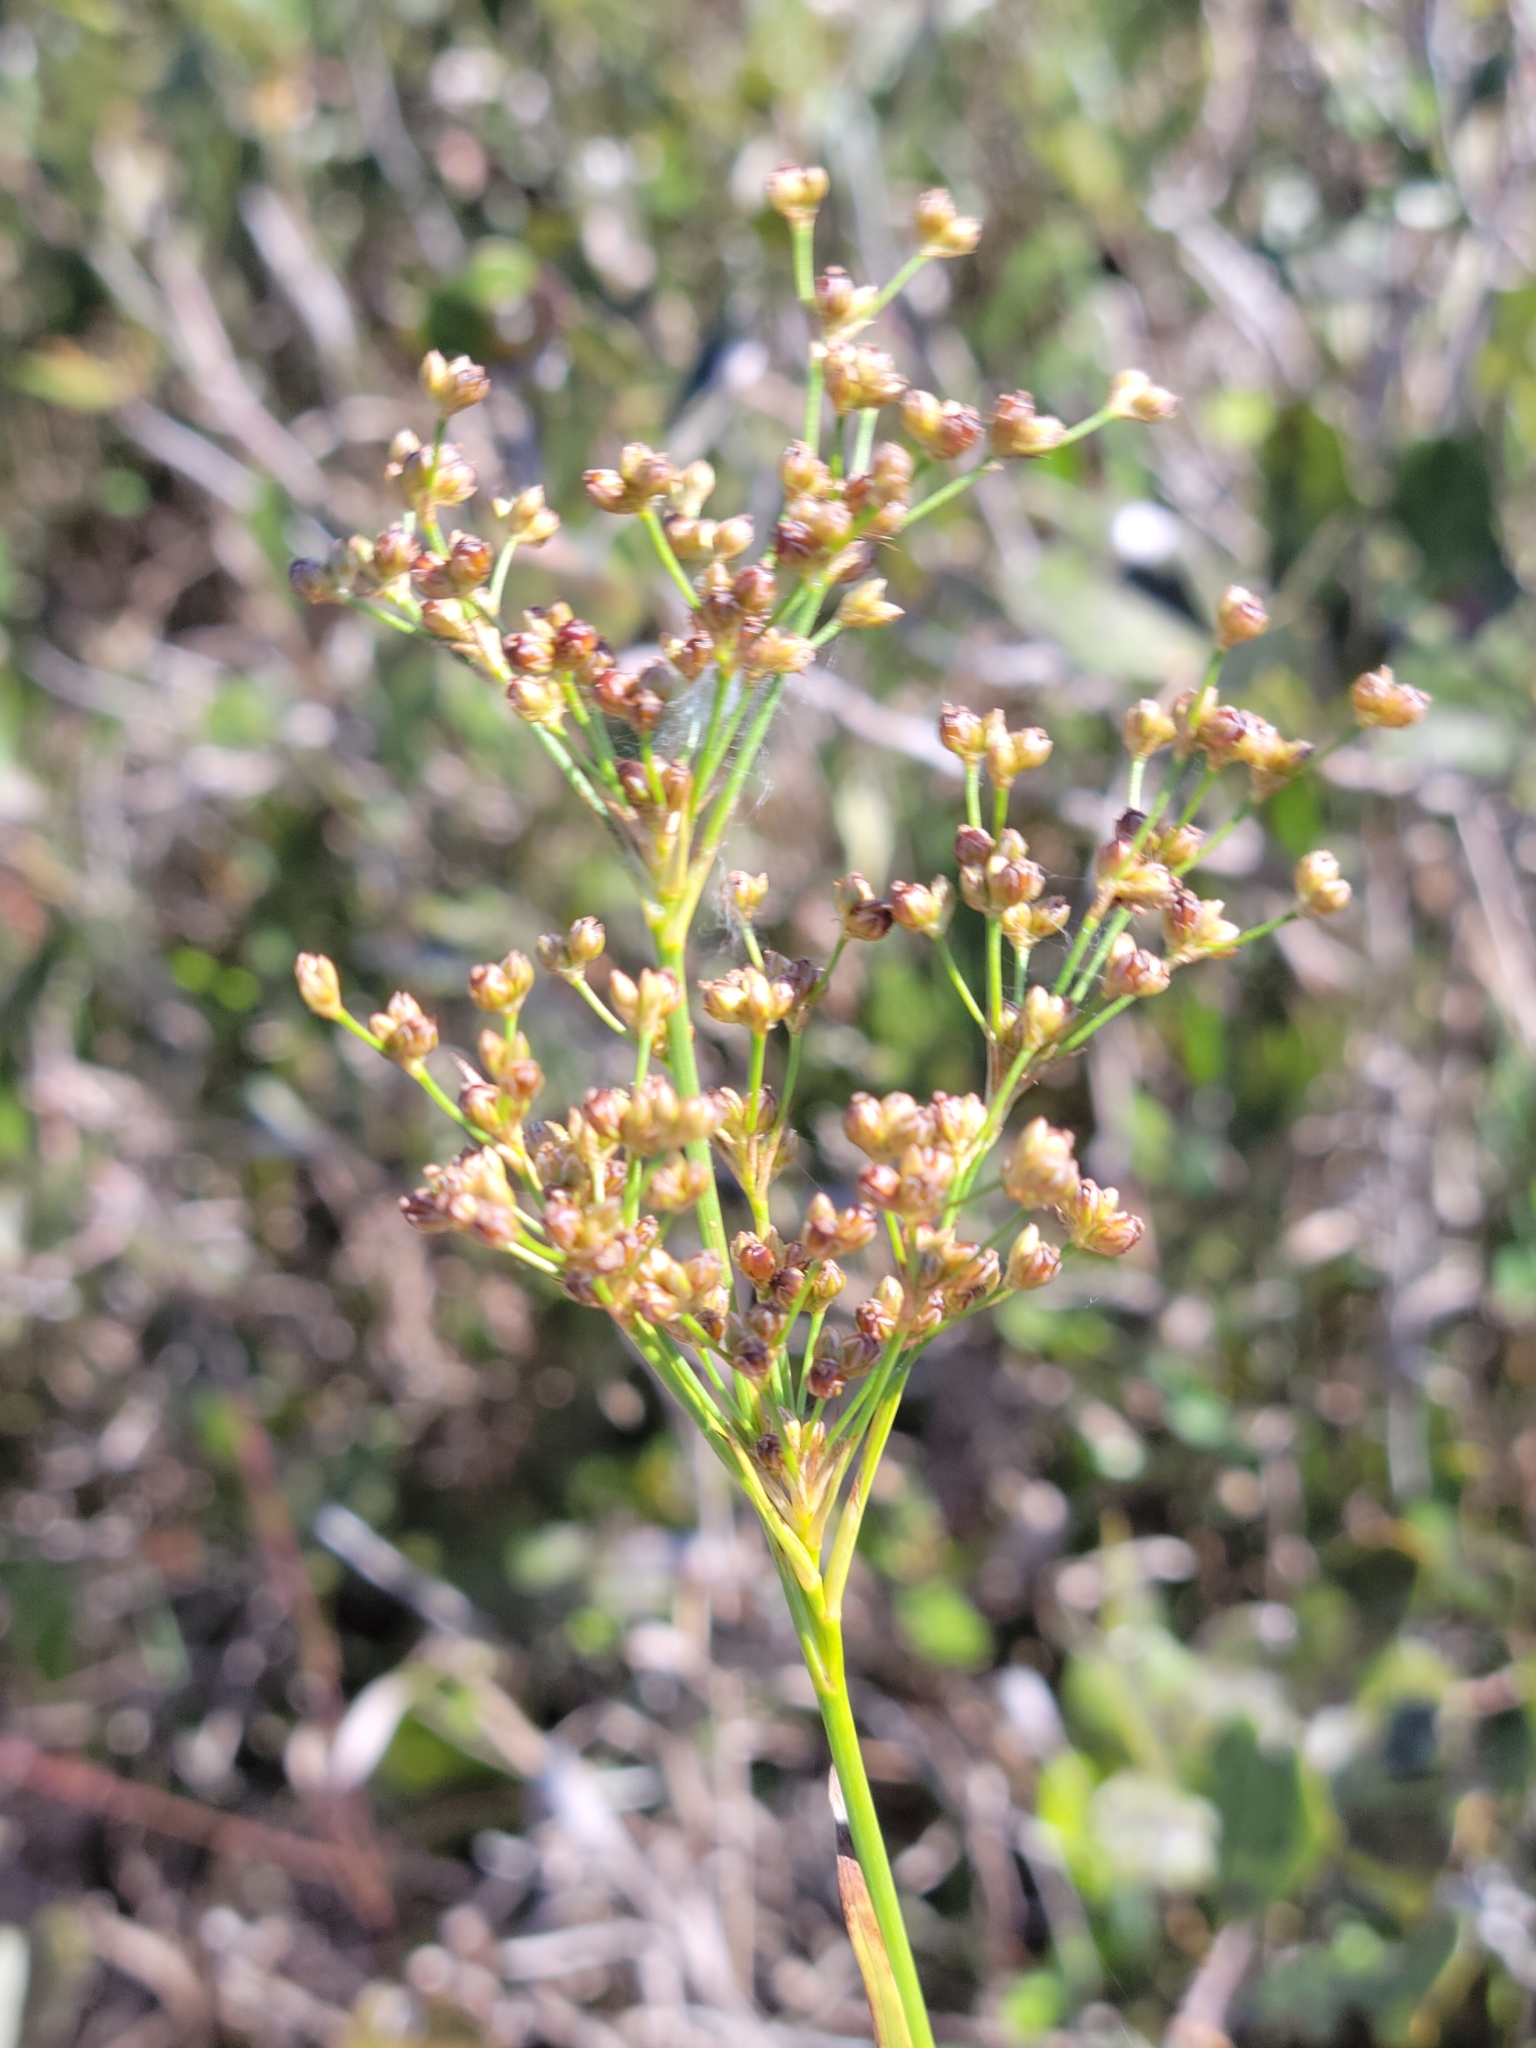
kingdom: Plantae
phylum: Tracheophyta
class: Liliopsida
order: Poales
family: Juncaceae
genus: Juncus
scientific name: Juncus biflorus
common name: Two-flowered rush
